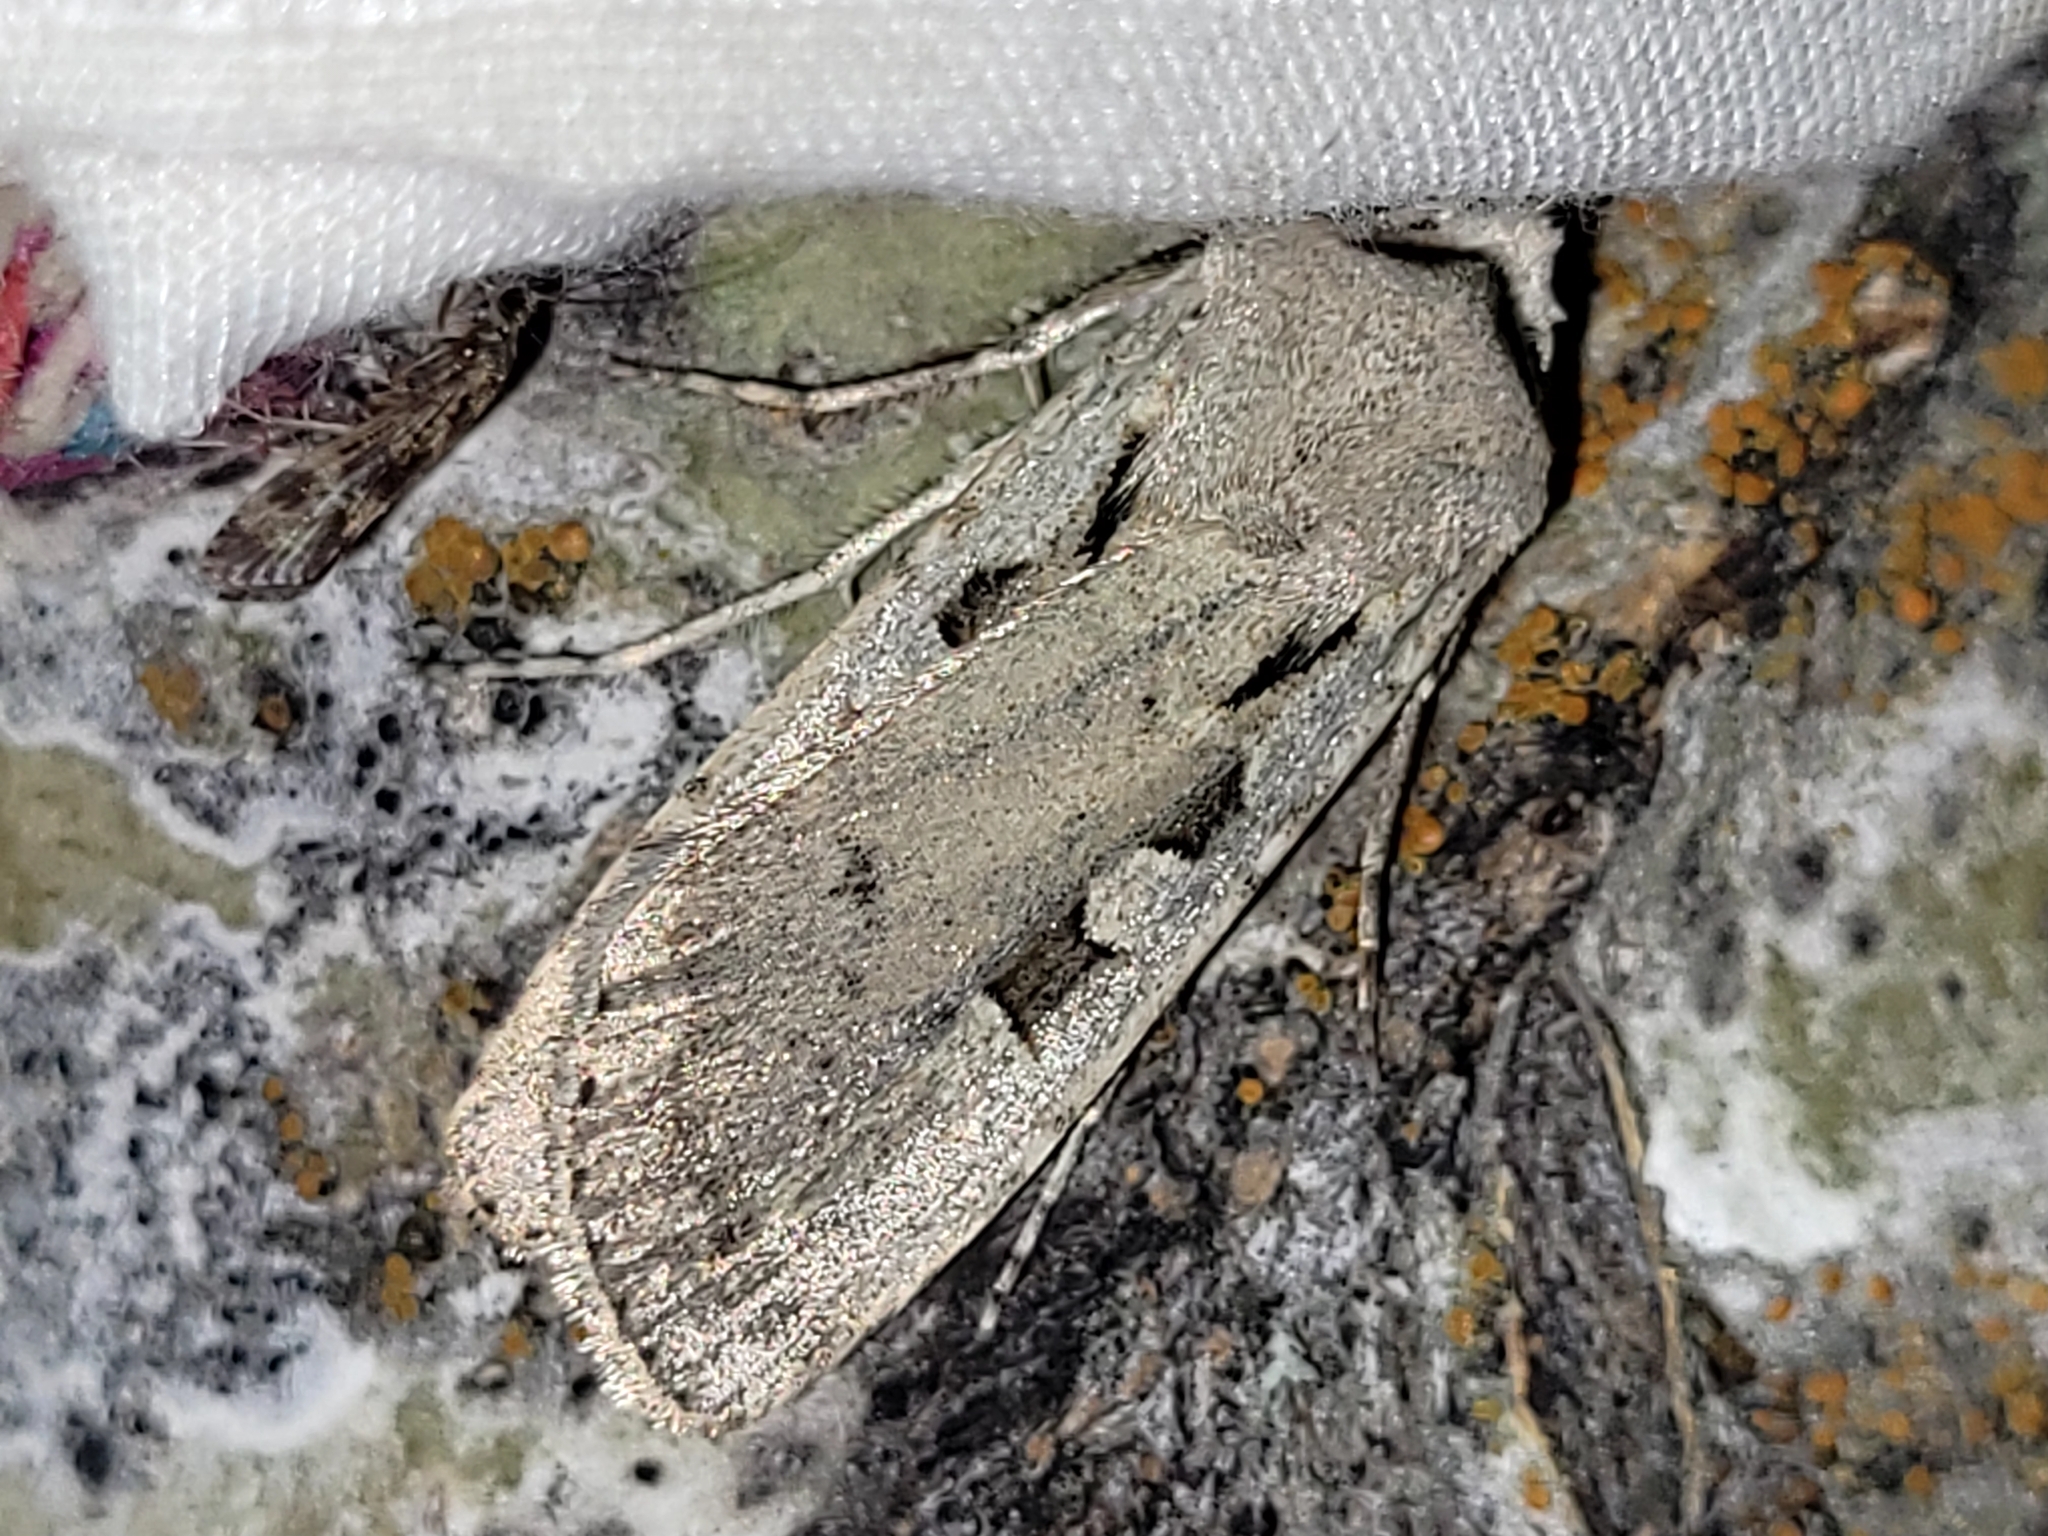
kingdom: Animalia
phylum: Arthropoda
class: Insecta
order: Lepidoptera
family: Noctuidae
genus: Euxoa
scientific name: Euxoa tristicula
